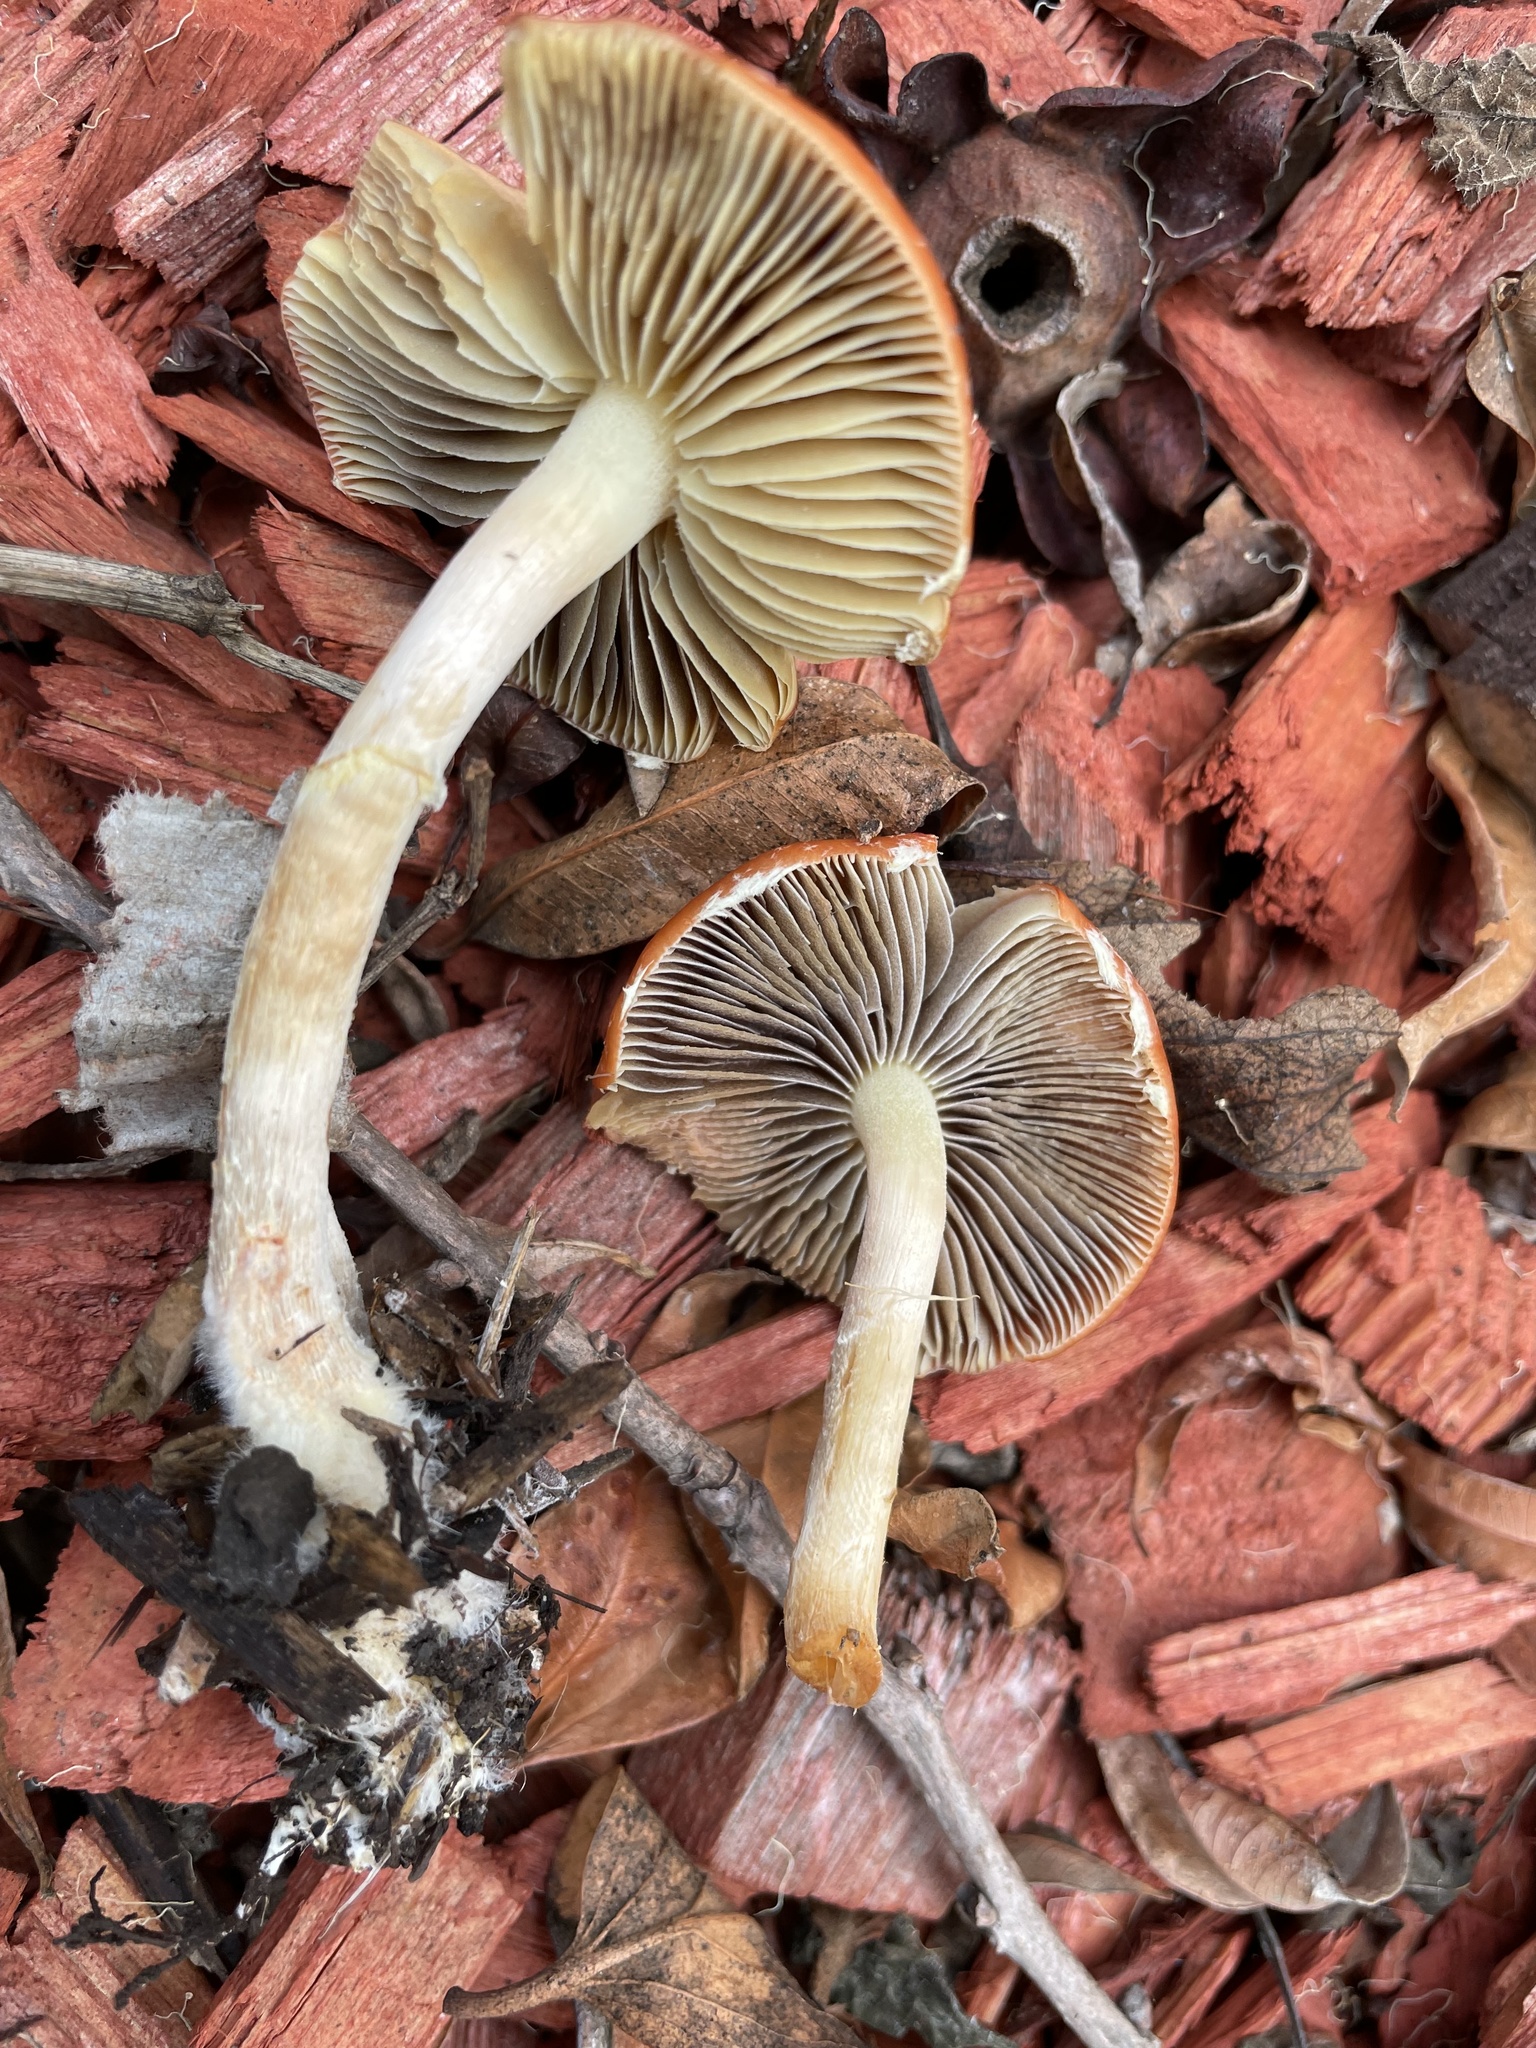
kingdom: Fungi
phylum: Basidiomycota
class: Agaricomycetes
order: Agaricales
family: Strophariaceae
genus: Leratiomyces
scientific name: Leratiomyces ceres
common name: Redlead roundhead
